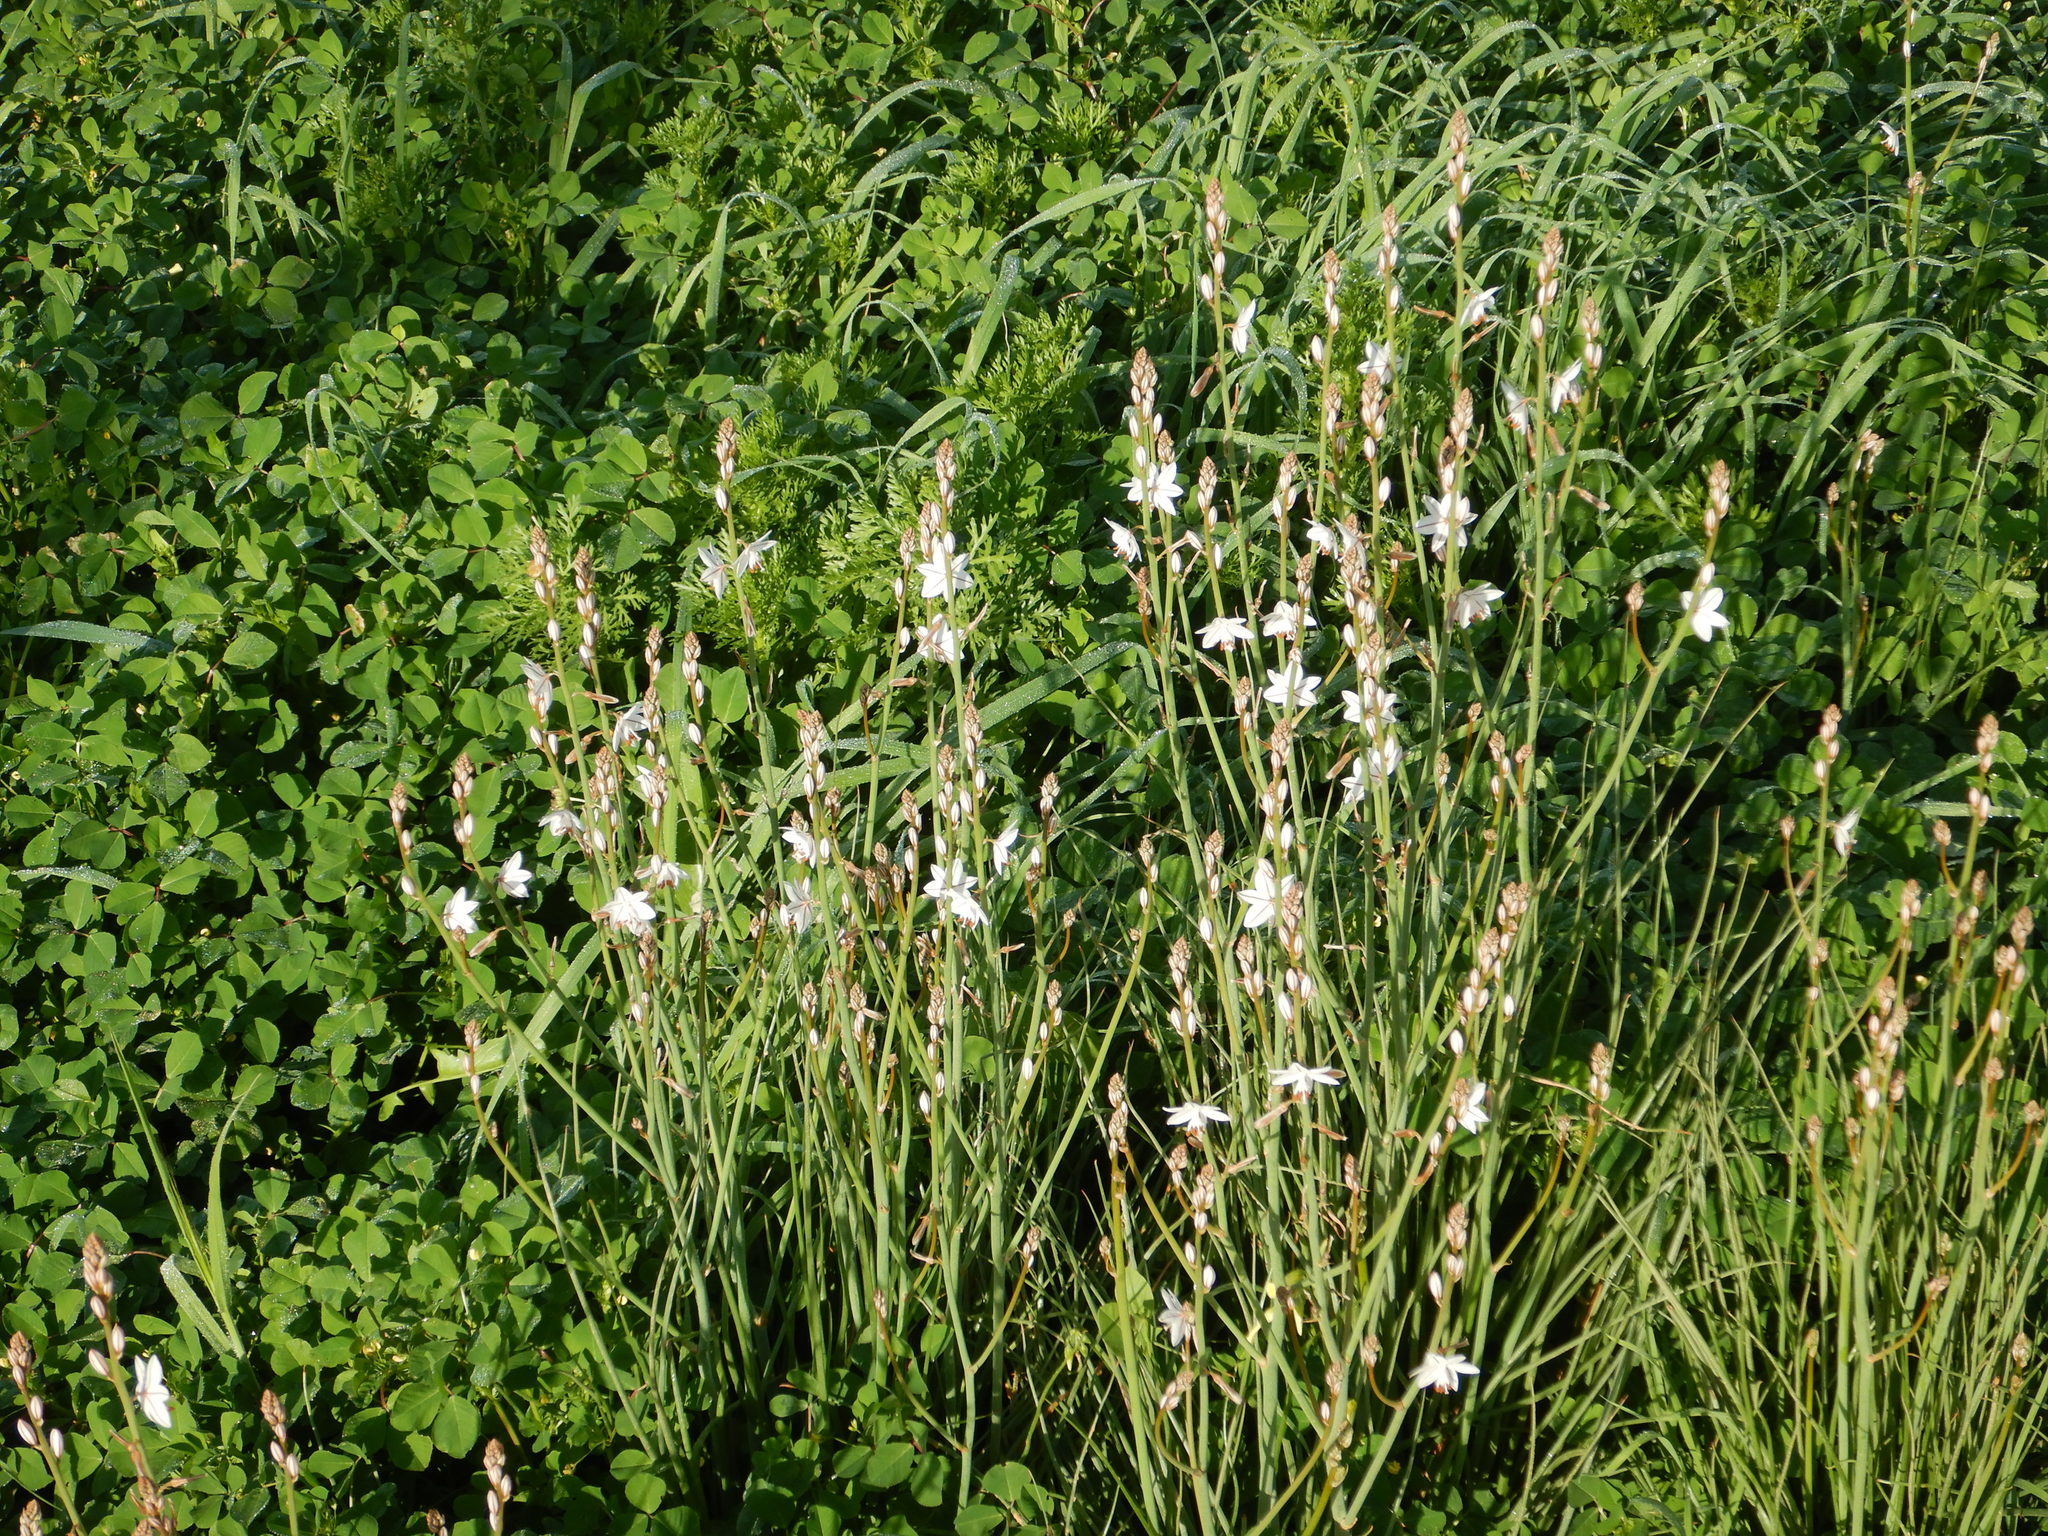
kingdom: Plantae
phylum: Tracheophyta
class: Liliopsida
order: Asparagales
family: Asphodelaceae
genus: Asphodelus
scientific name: Asphodelus fistulosus
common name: Onionweed
